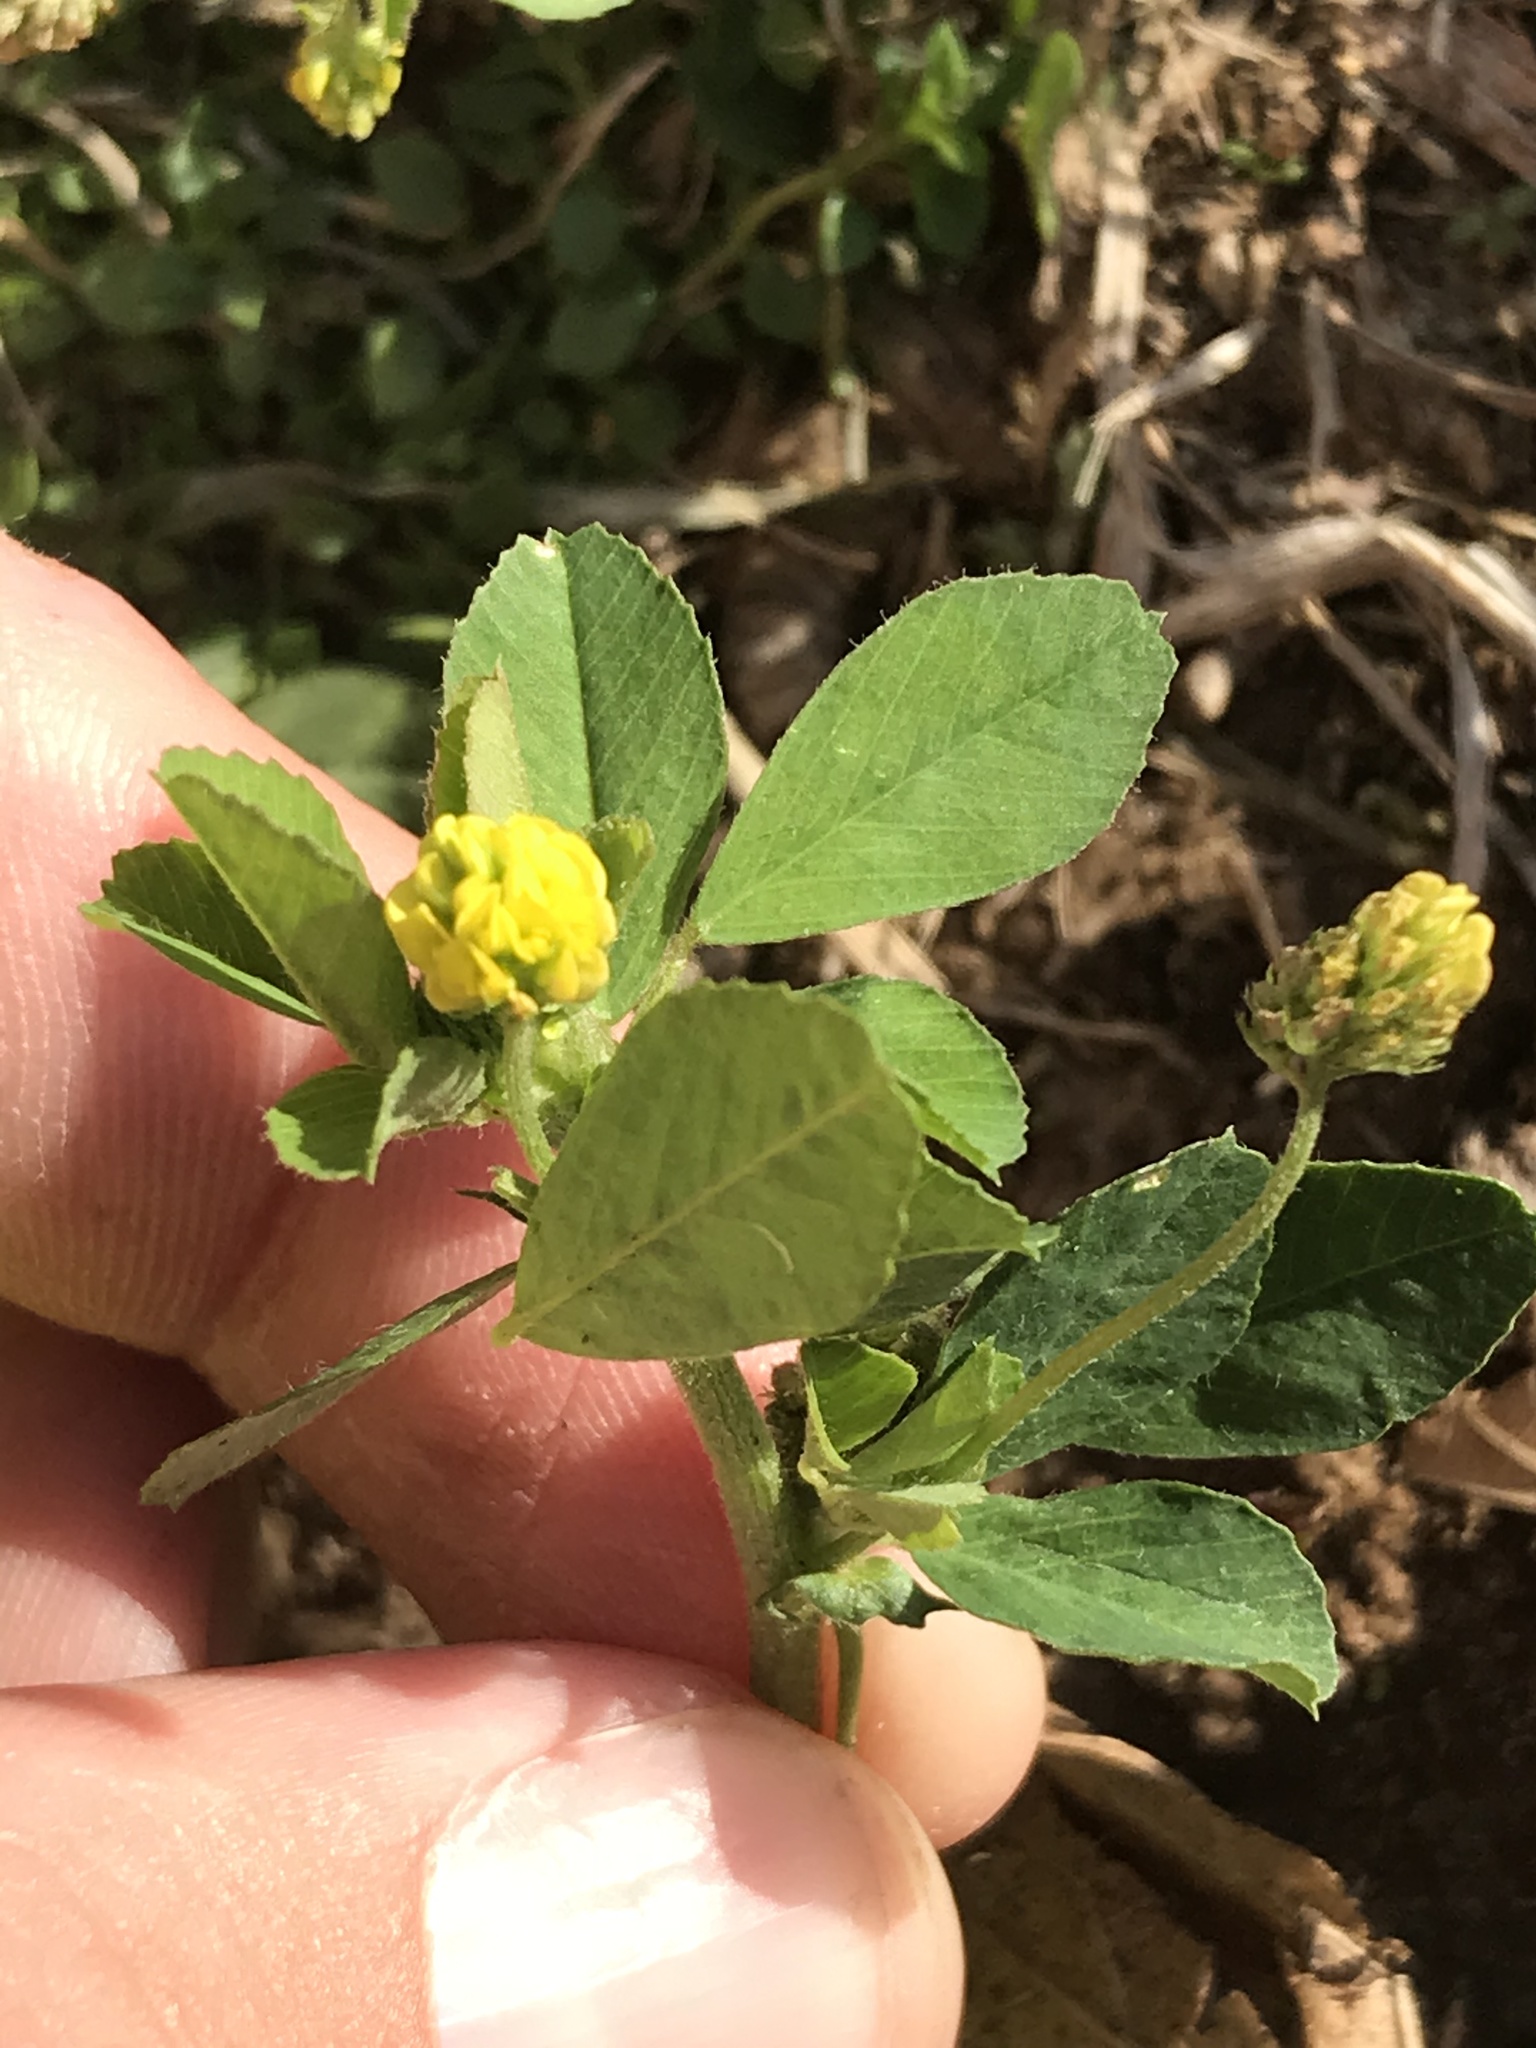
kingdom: Plantae
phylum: Tracheophyta
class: Magnoliopsida
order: Fabales
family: Fabaceae
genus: Medicago
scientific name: Medicago lupulina
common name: Black medick
